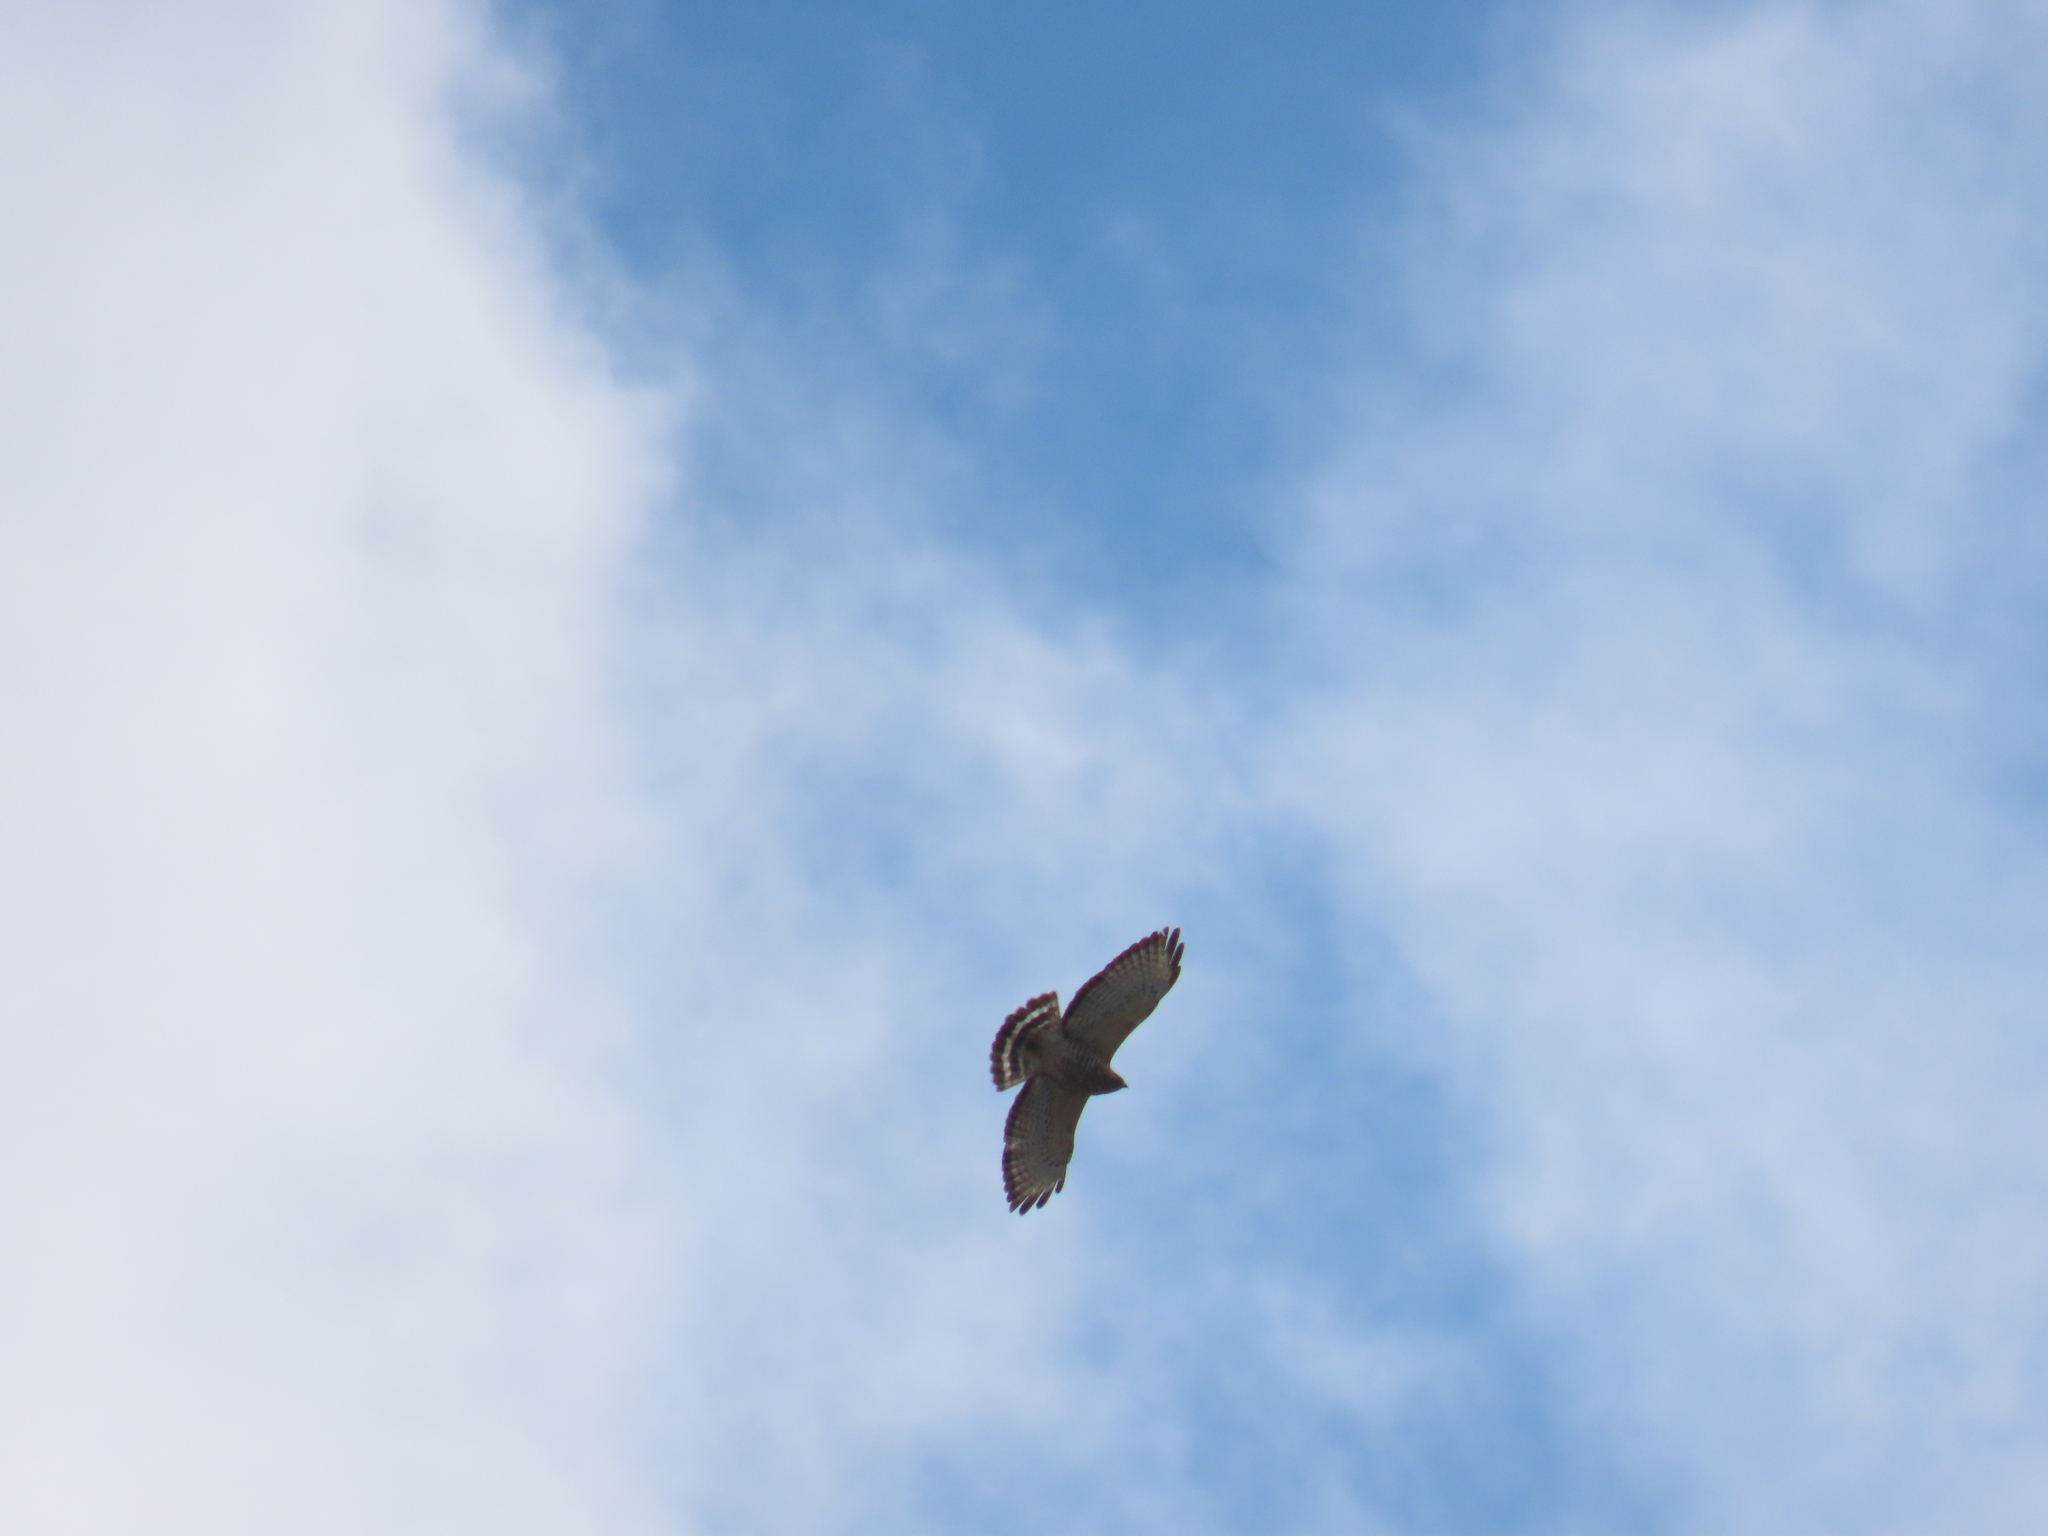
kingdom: Animalia
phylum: Chordata
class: Aves
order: Accipitriformes
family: Accipitridae
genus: Buteo
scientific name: Buteo platypterus
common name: Broad-winged hawk
